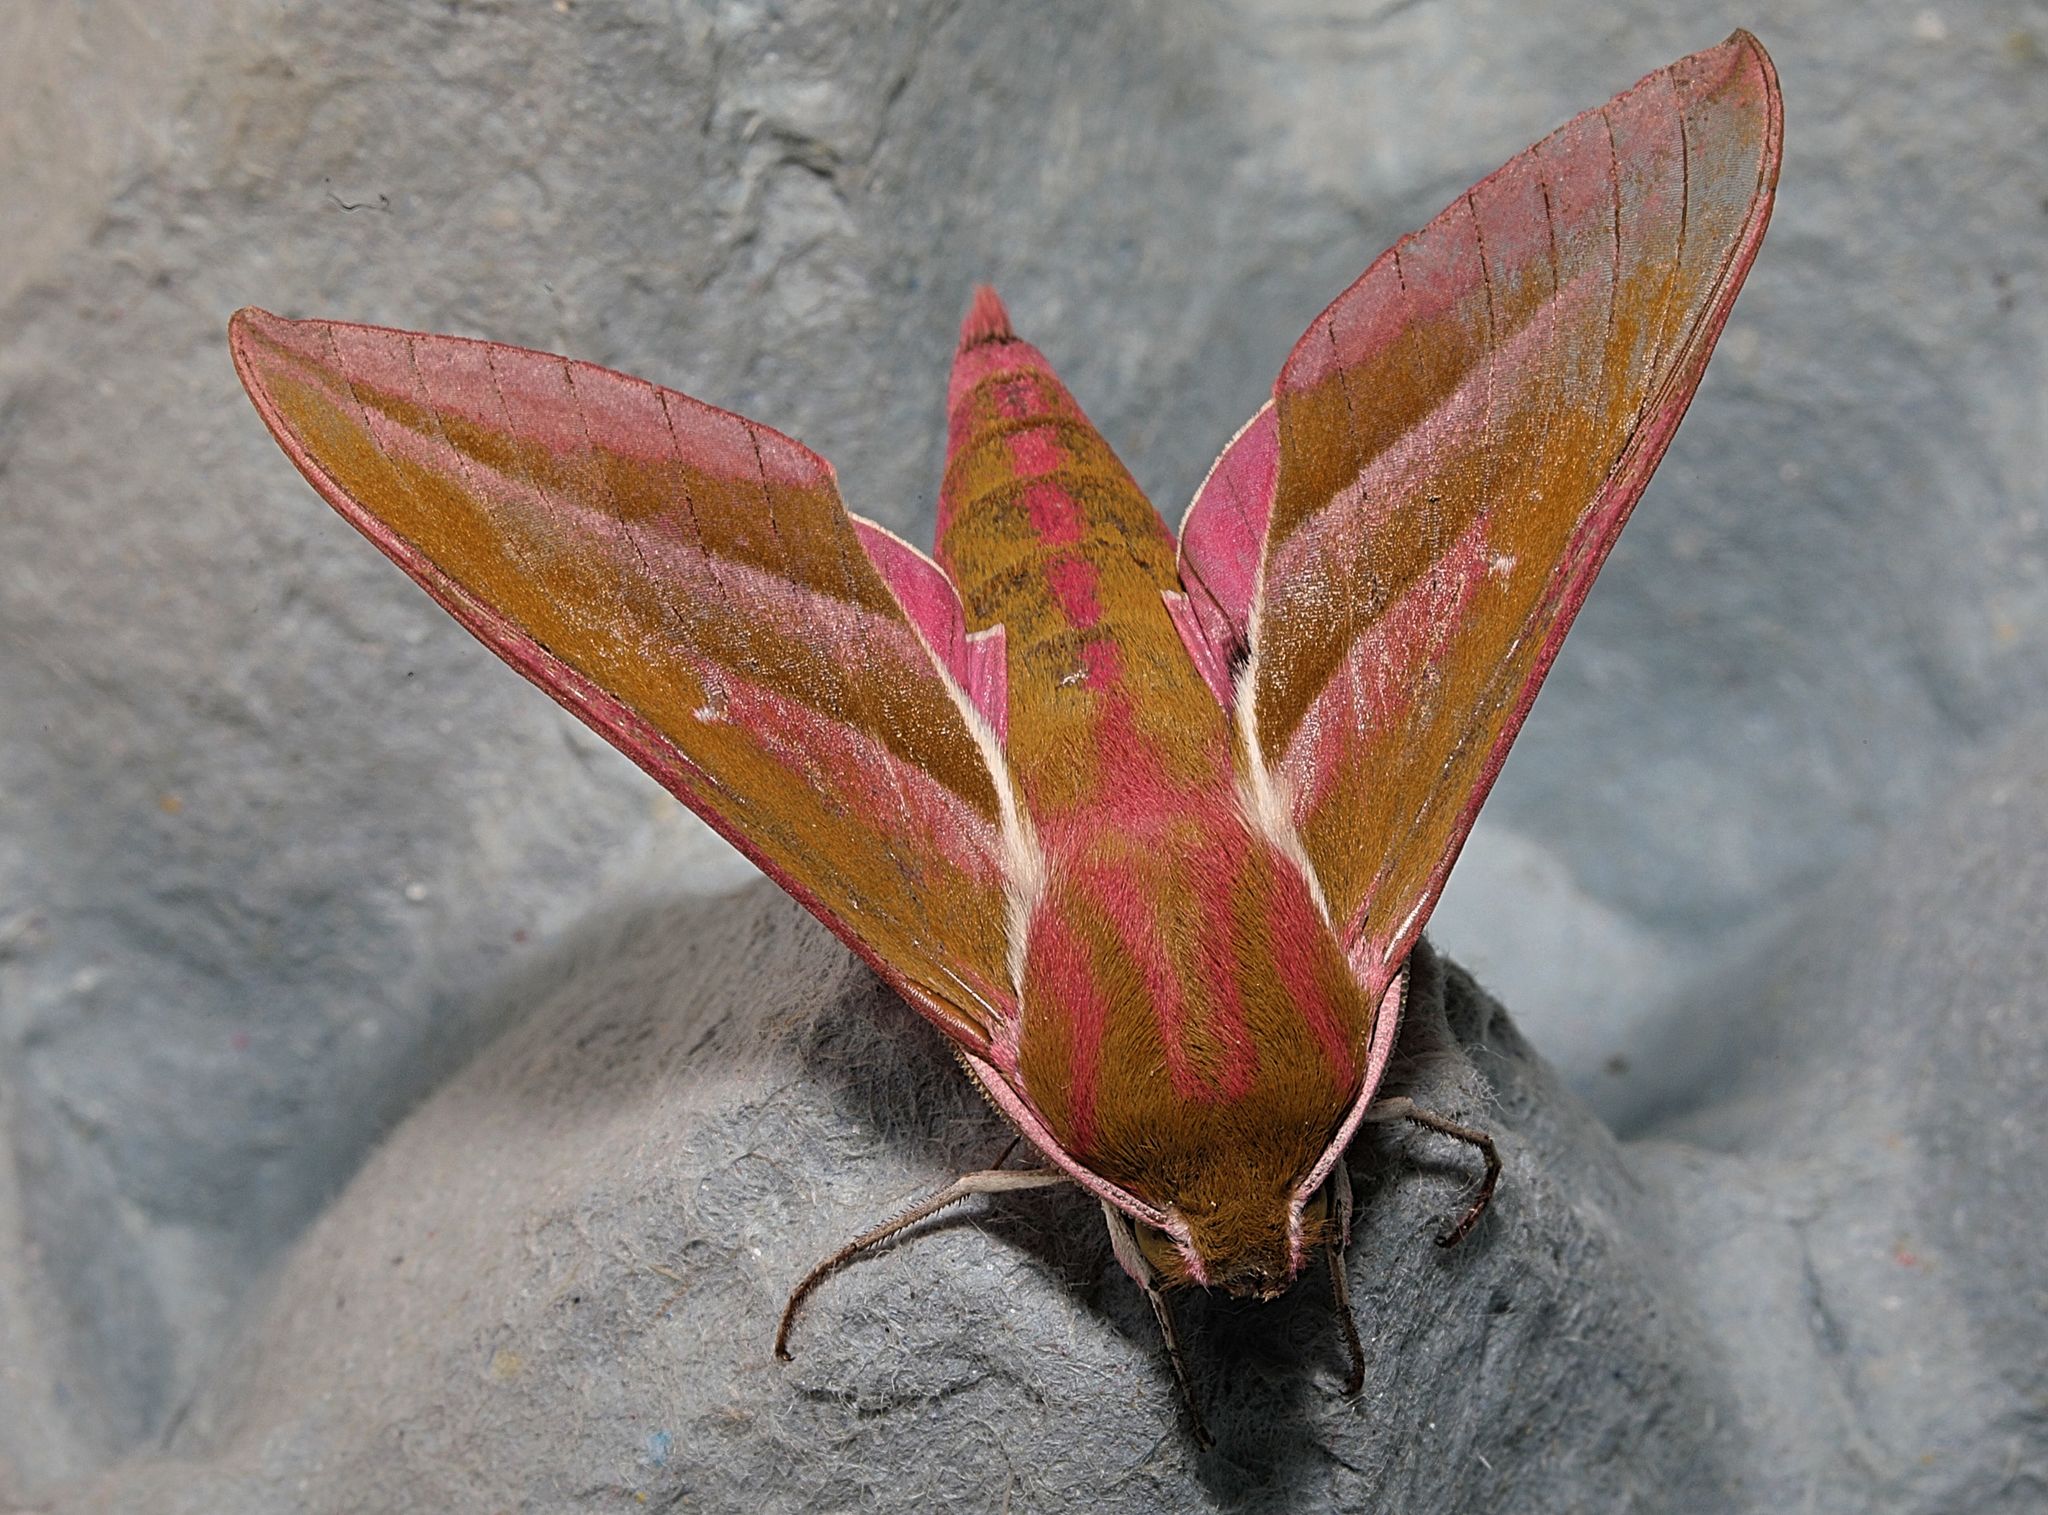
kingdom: Animalia
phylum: Arthropoda
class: Insecta
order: Lepidoptera
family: Sphingidae
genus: Deilephila
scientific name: Deilephila elpenor
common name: Elephant hawk-moth
